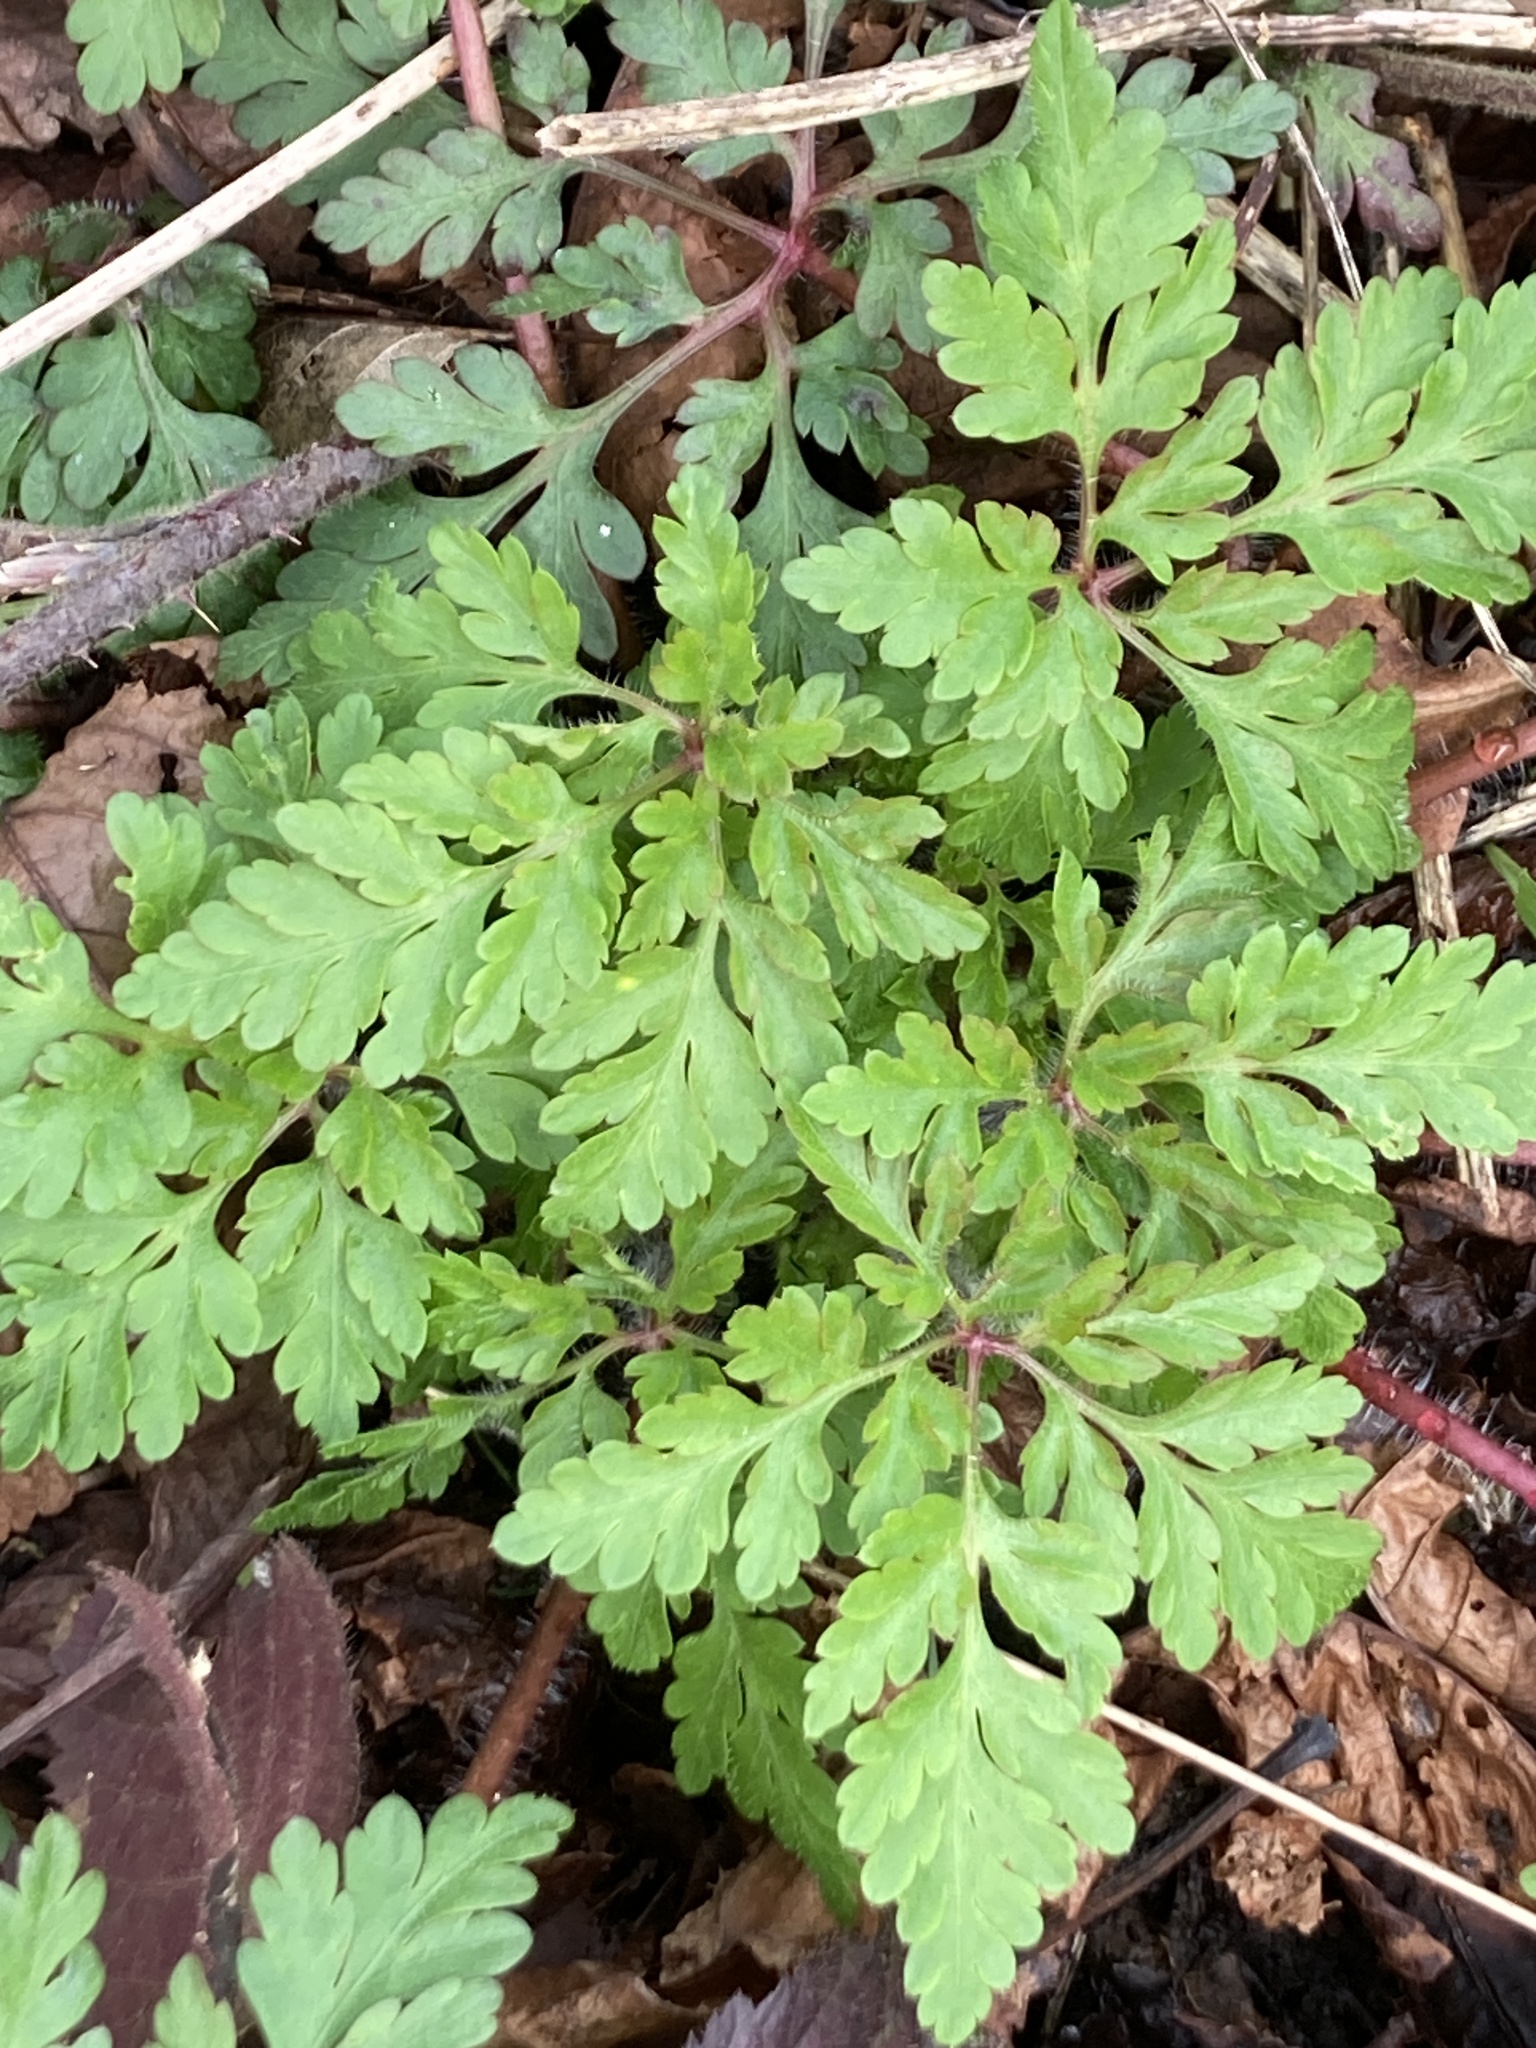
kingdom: Plantae
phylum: Tracheophyta
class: Magnoliopsida
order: Geraniales
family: Geraniaceae
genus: Geranium
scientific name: Geranium robertianum
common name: Herb-robert
